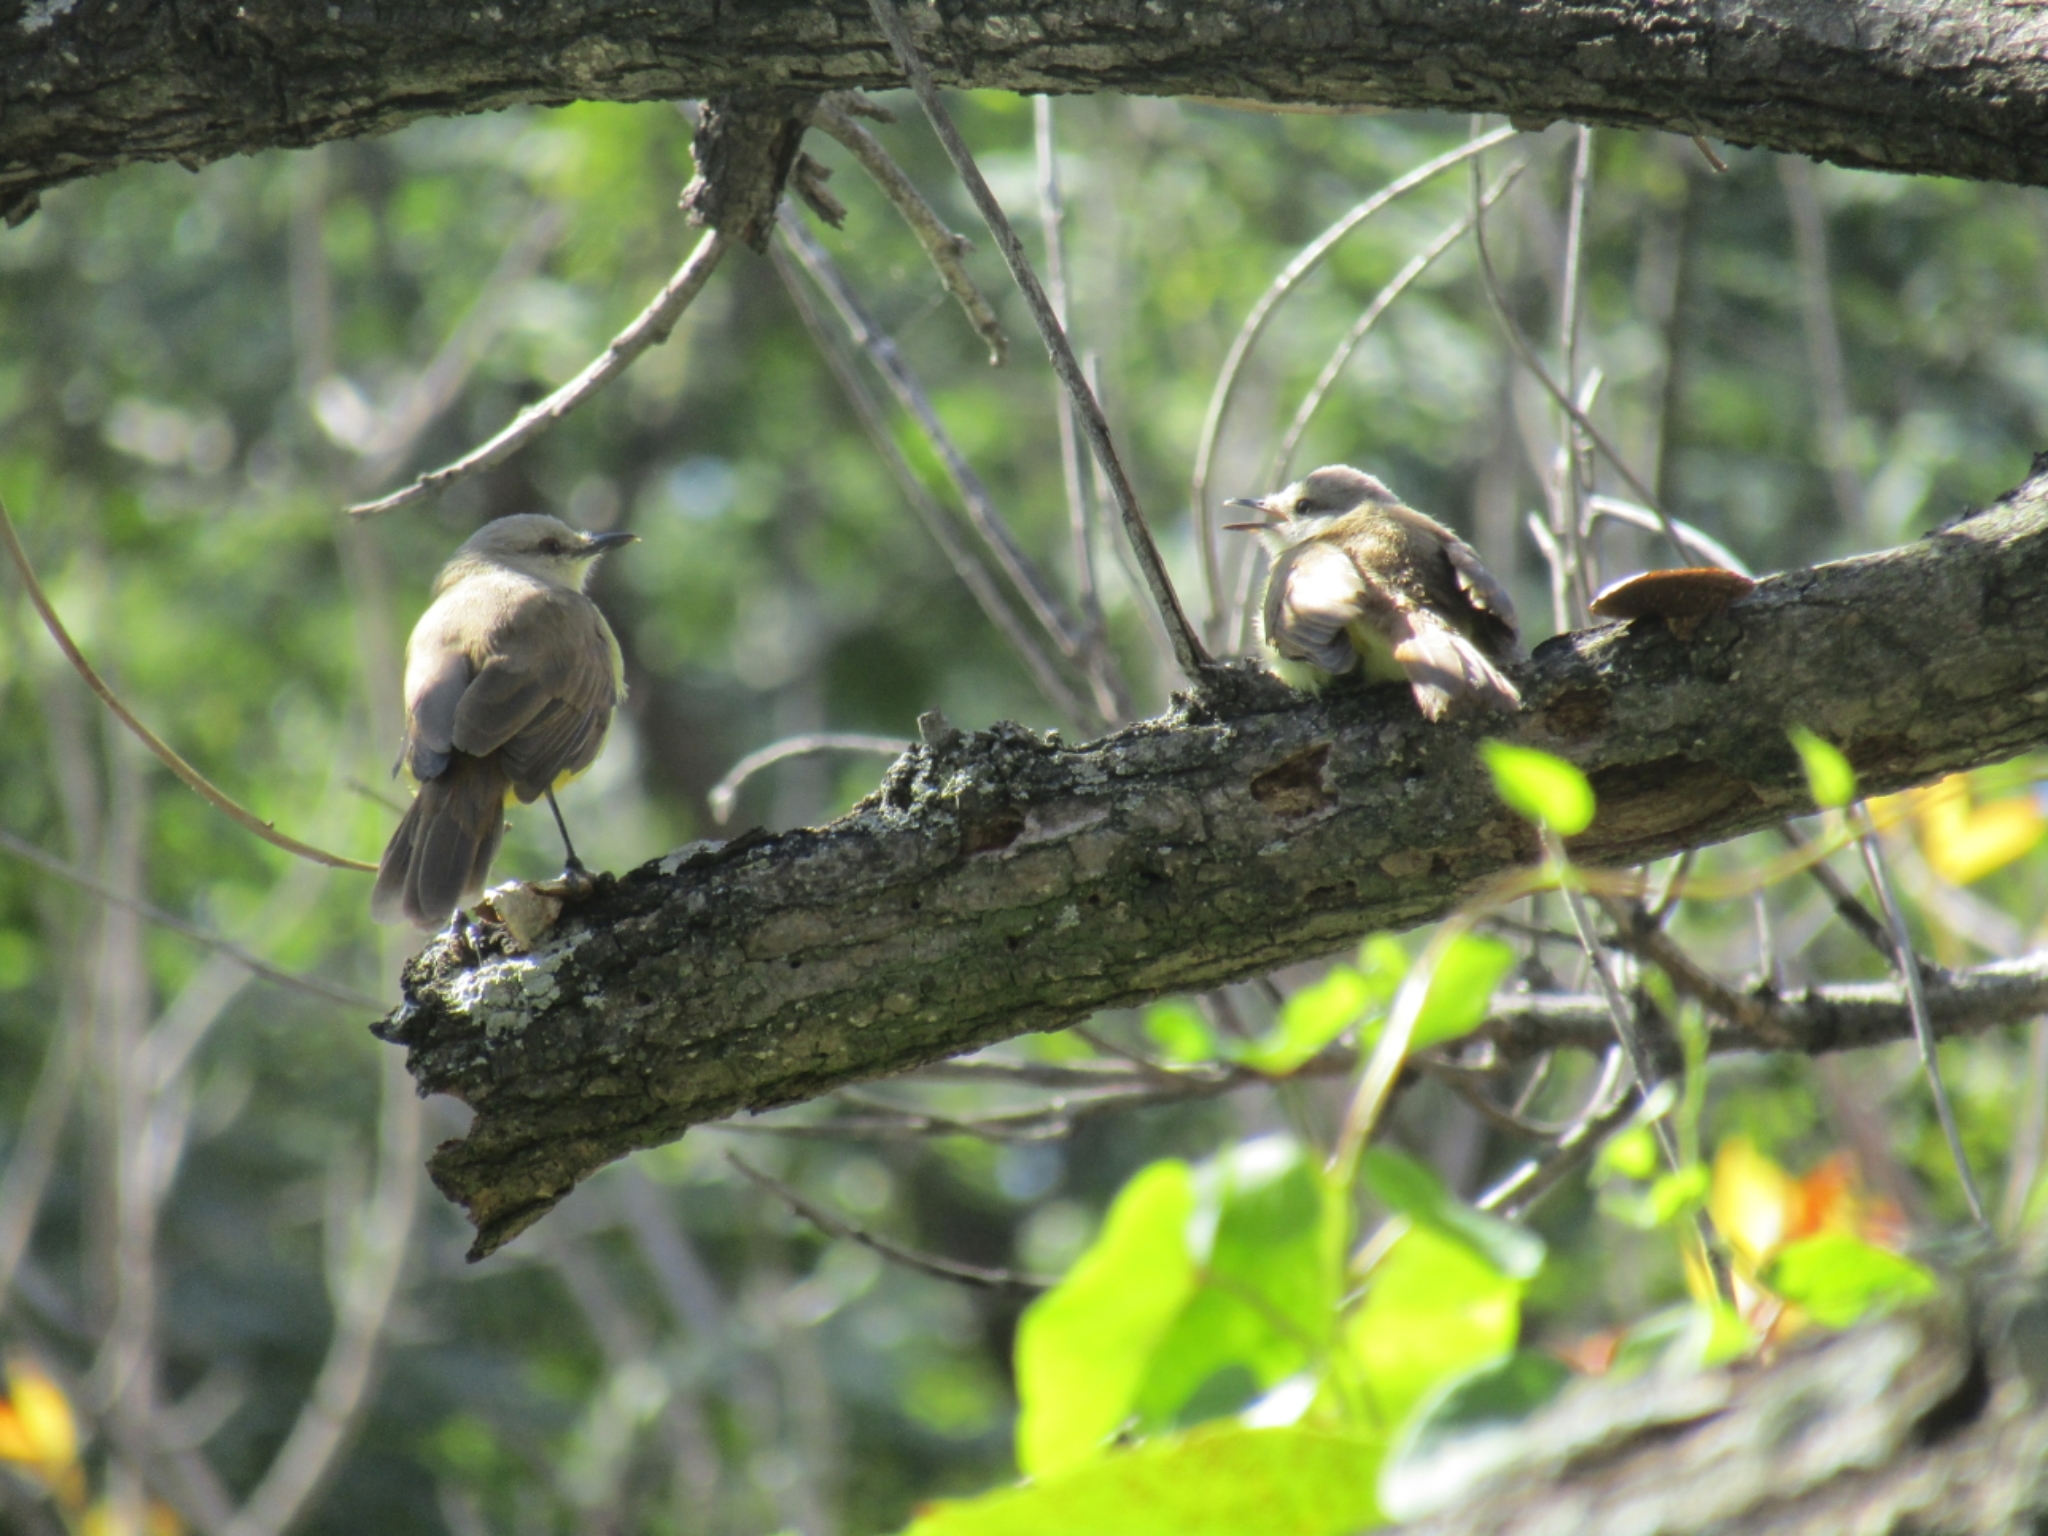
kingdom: Animalia
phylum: Chordata
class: Aves
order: Passeriformes
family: Tyrannidae
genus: Machetornis
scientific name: Machetornis rixosa
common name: Cattle tyrant
